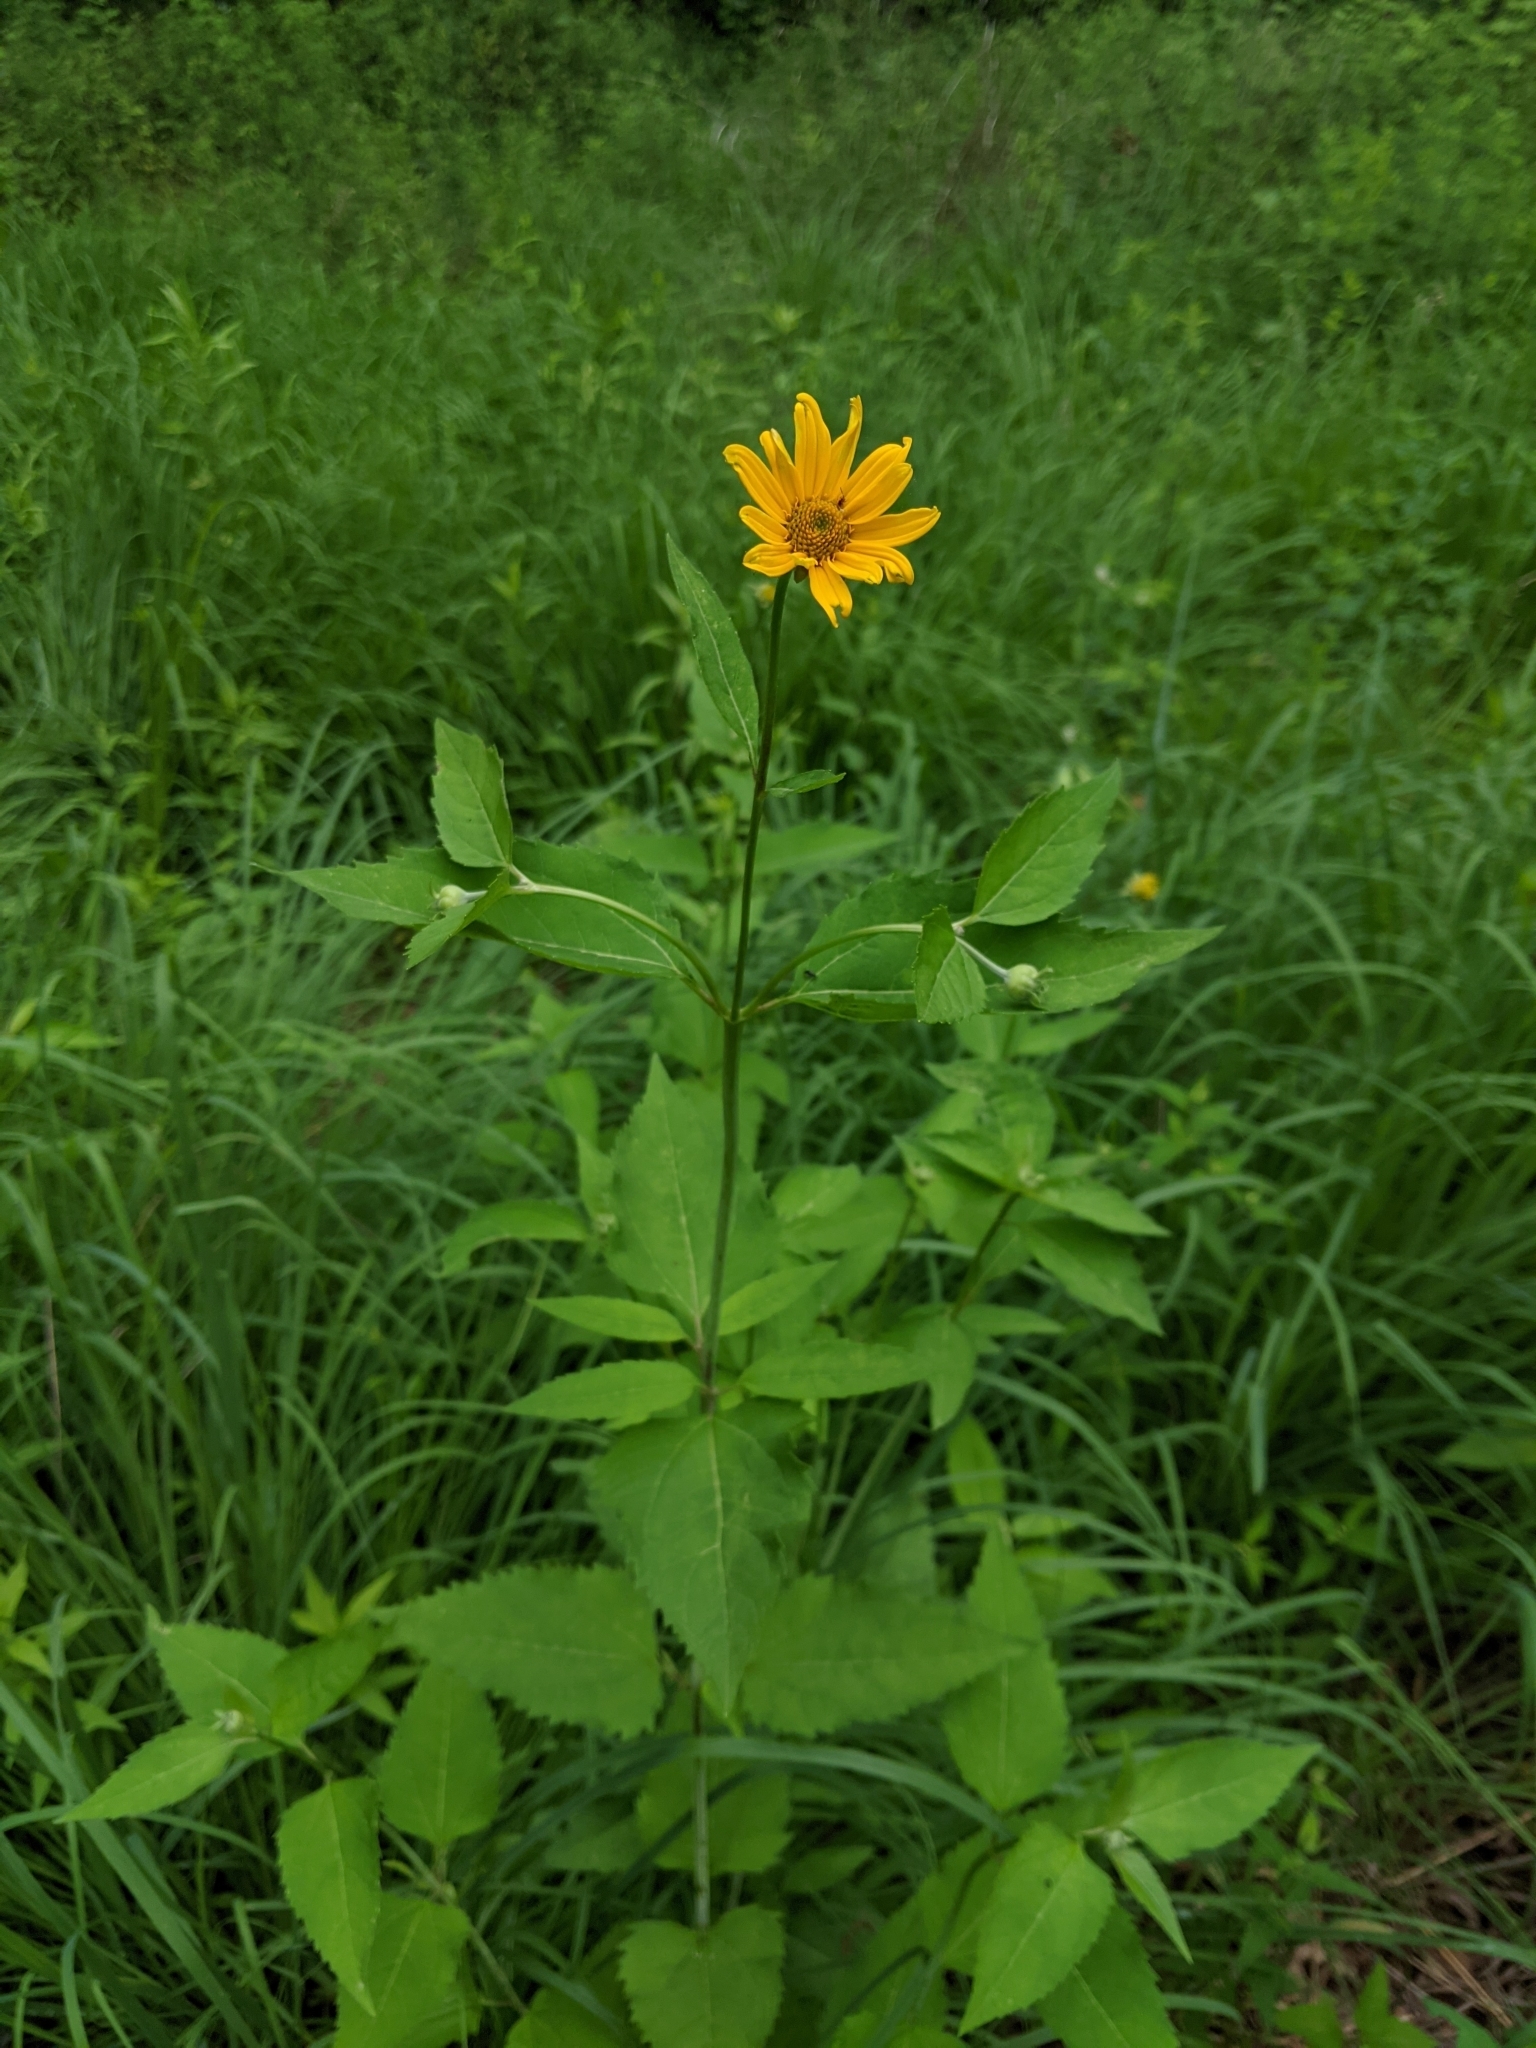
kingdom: Plantae
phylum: Tracheophyta
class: Magnoliopsida
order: Asterales
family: Asteraceae
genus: Heliopsis
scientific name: Heliopsis helianthoides
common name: False sunflower
